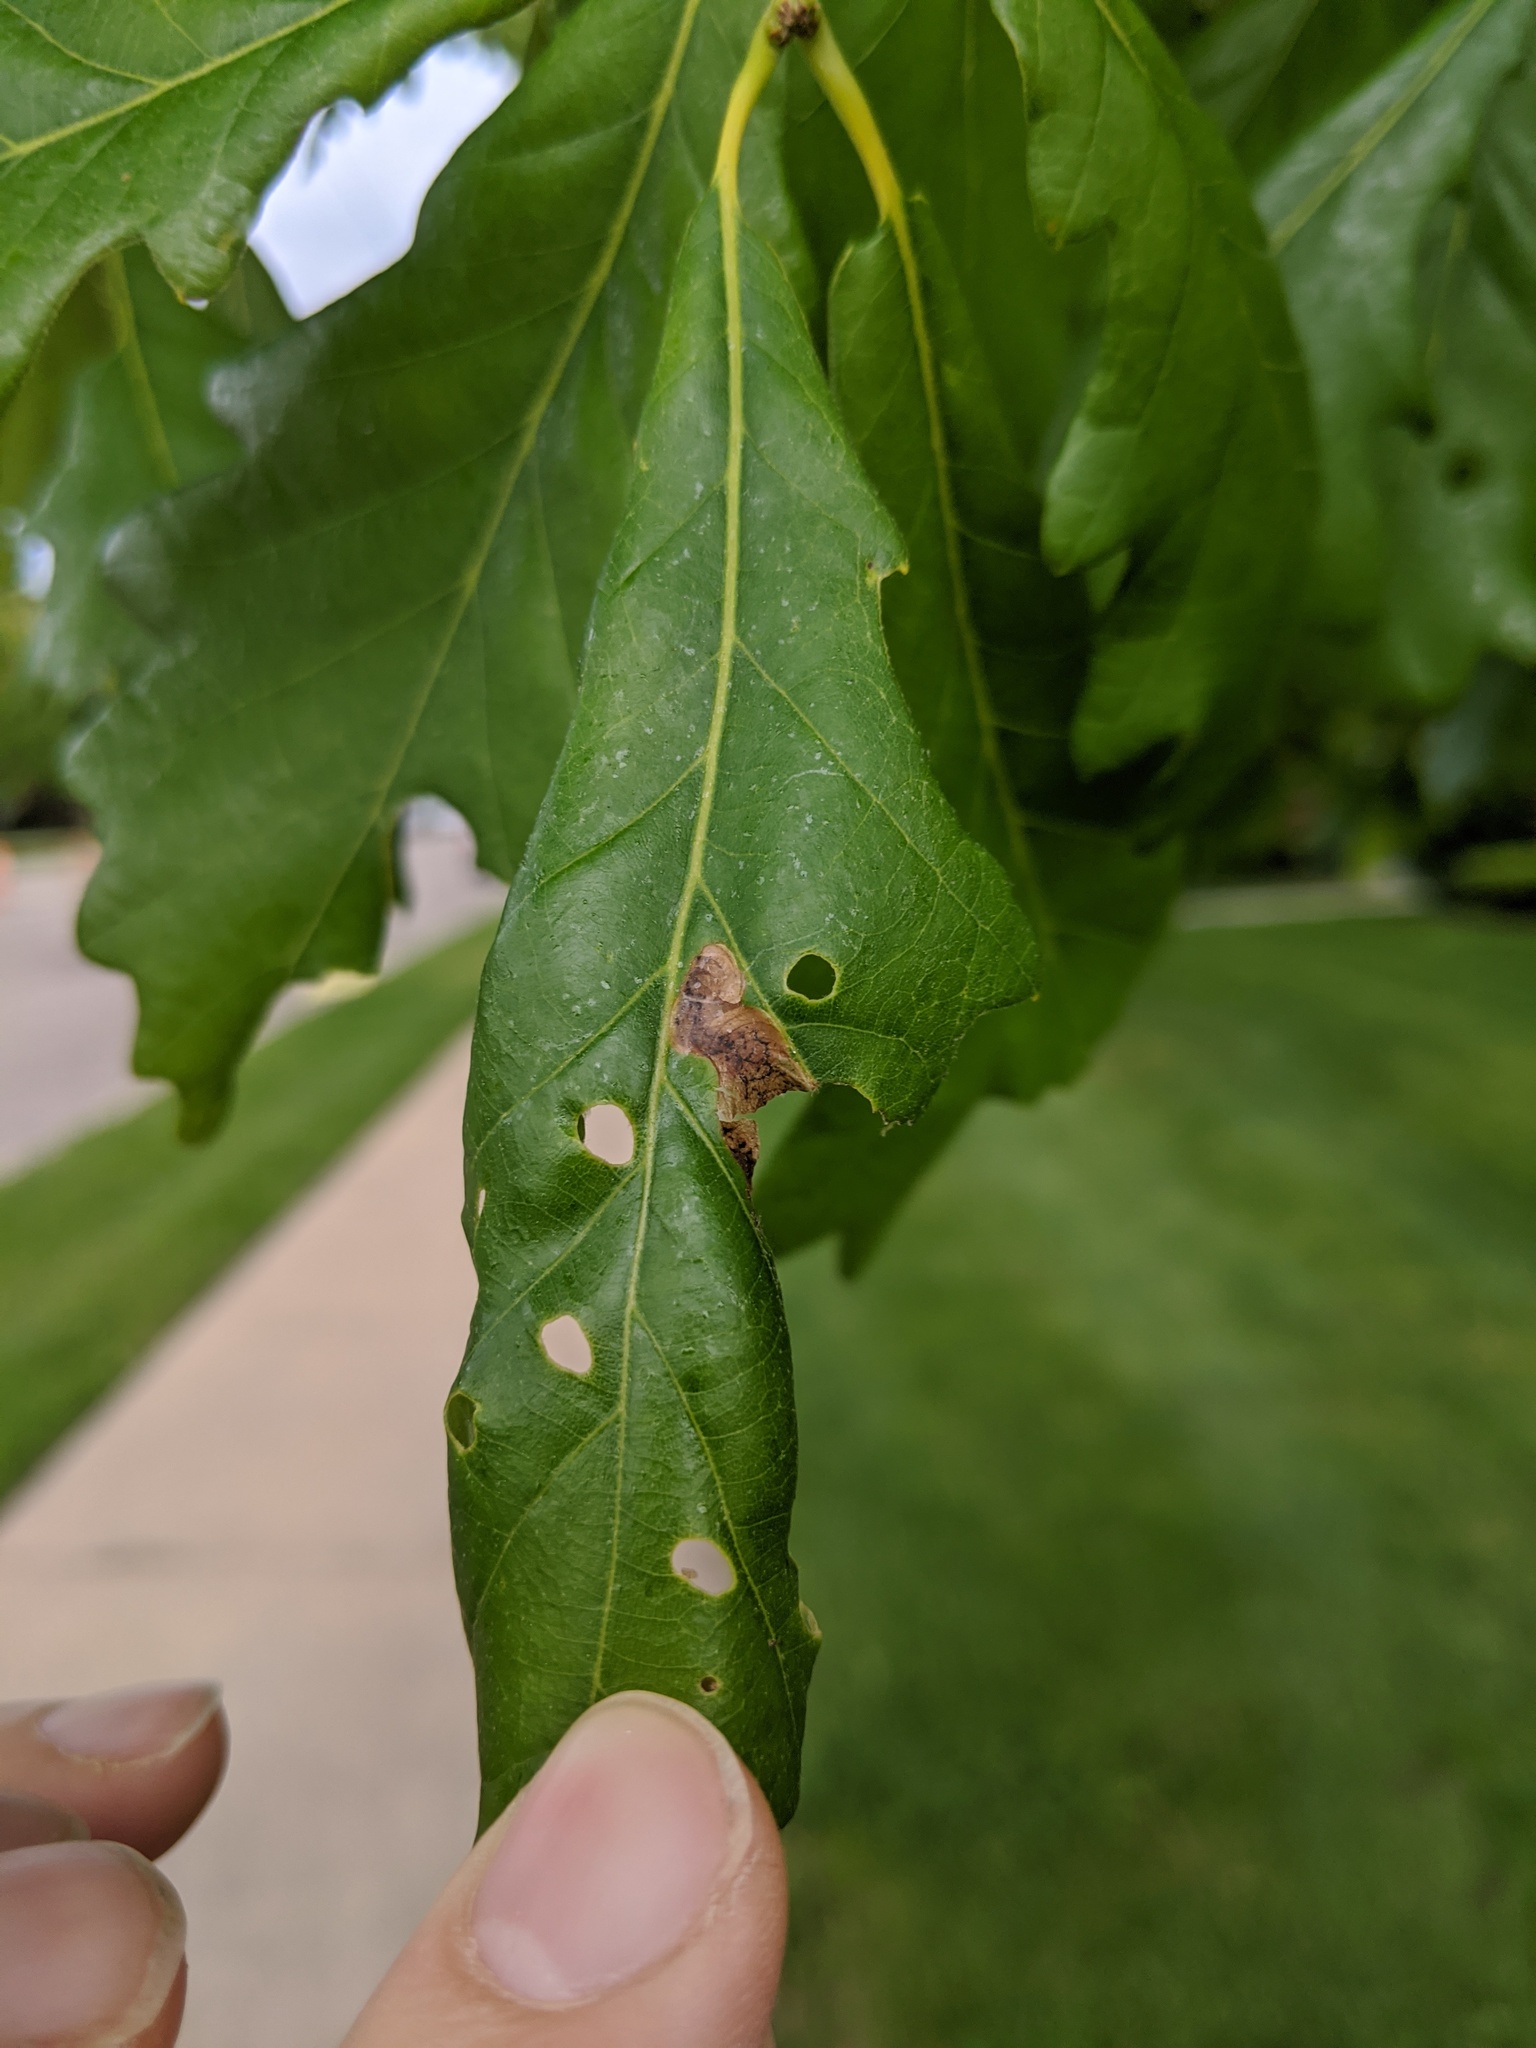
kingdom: Animalia
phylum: Arthropoda
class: Insecta
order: Diptera
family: Agromyzidae
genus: Japanagromyza
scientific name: Japanagromyza viridula
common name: Oak shothole leafminer
